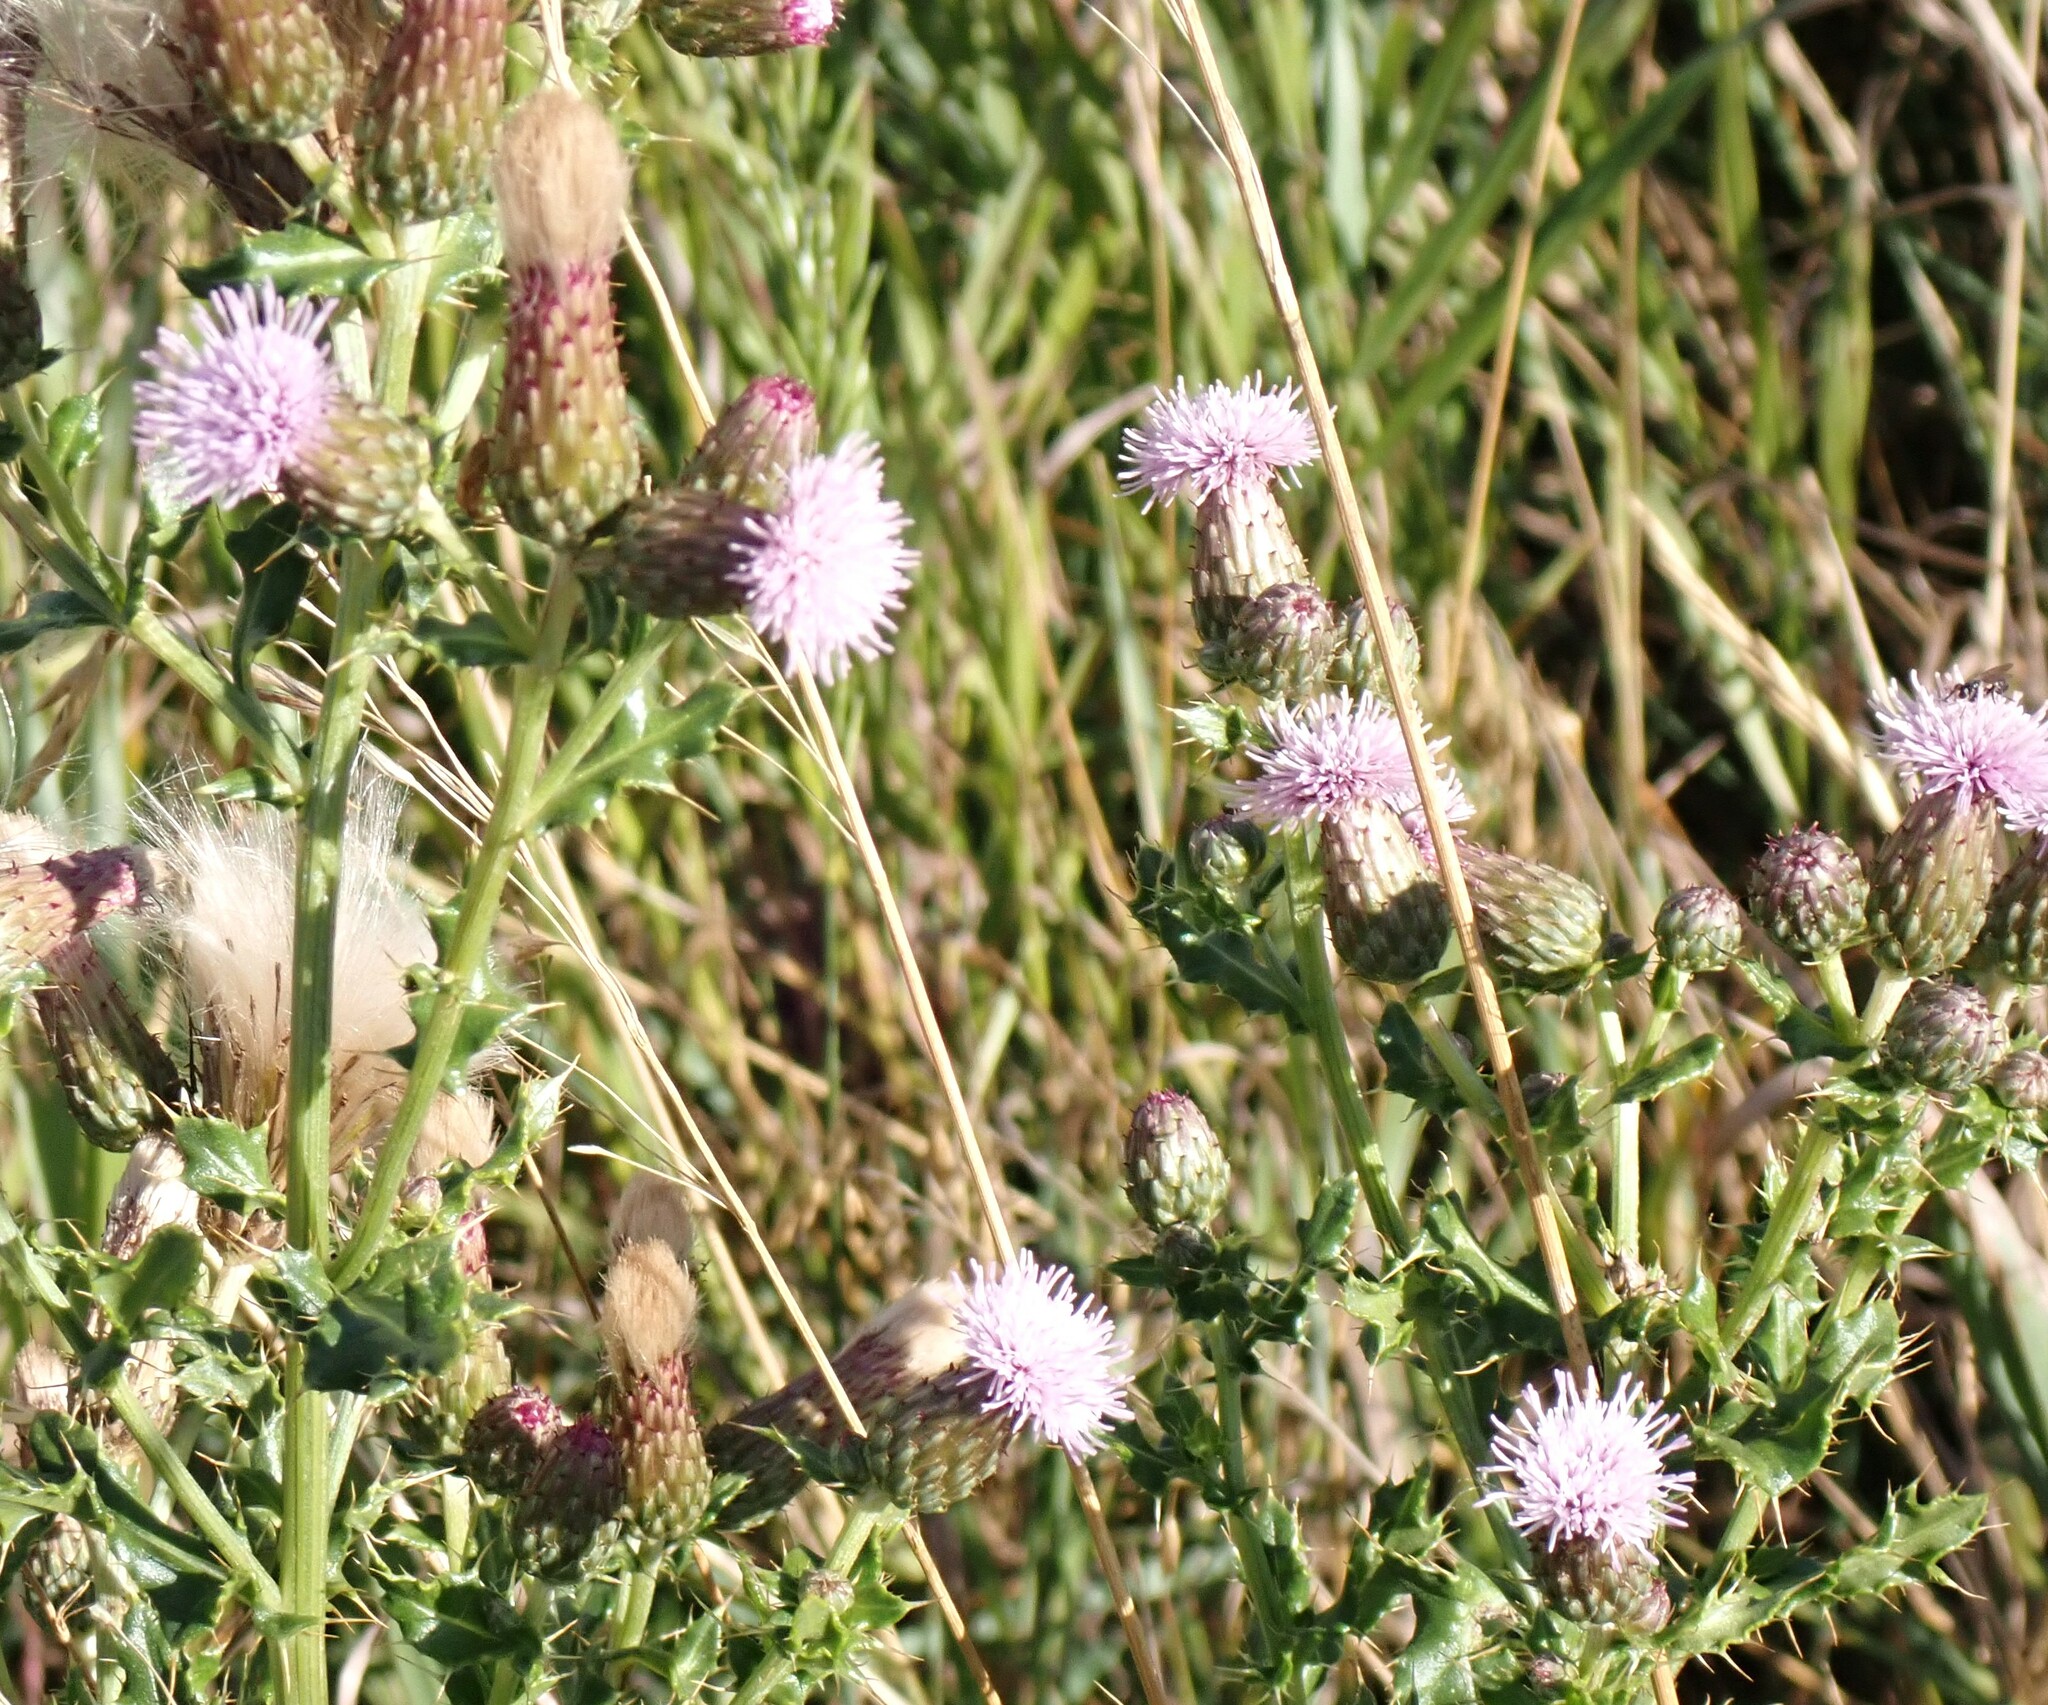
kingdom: Plantae
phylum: Tracheophyta
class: Magnoliopsida
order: Asterales
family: Asteraceae
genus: Cirsium
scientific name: Cirsium arvense
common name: Creeping thistle
